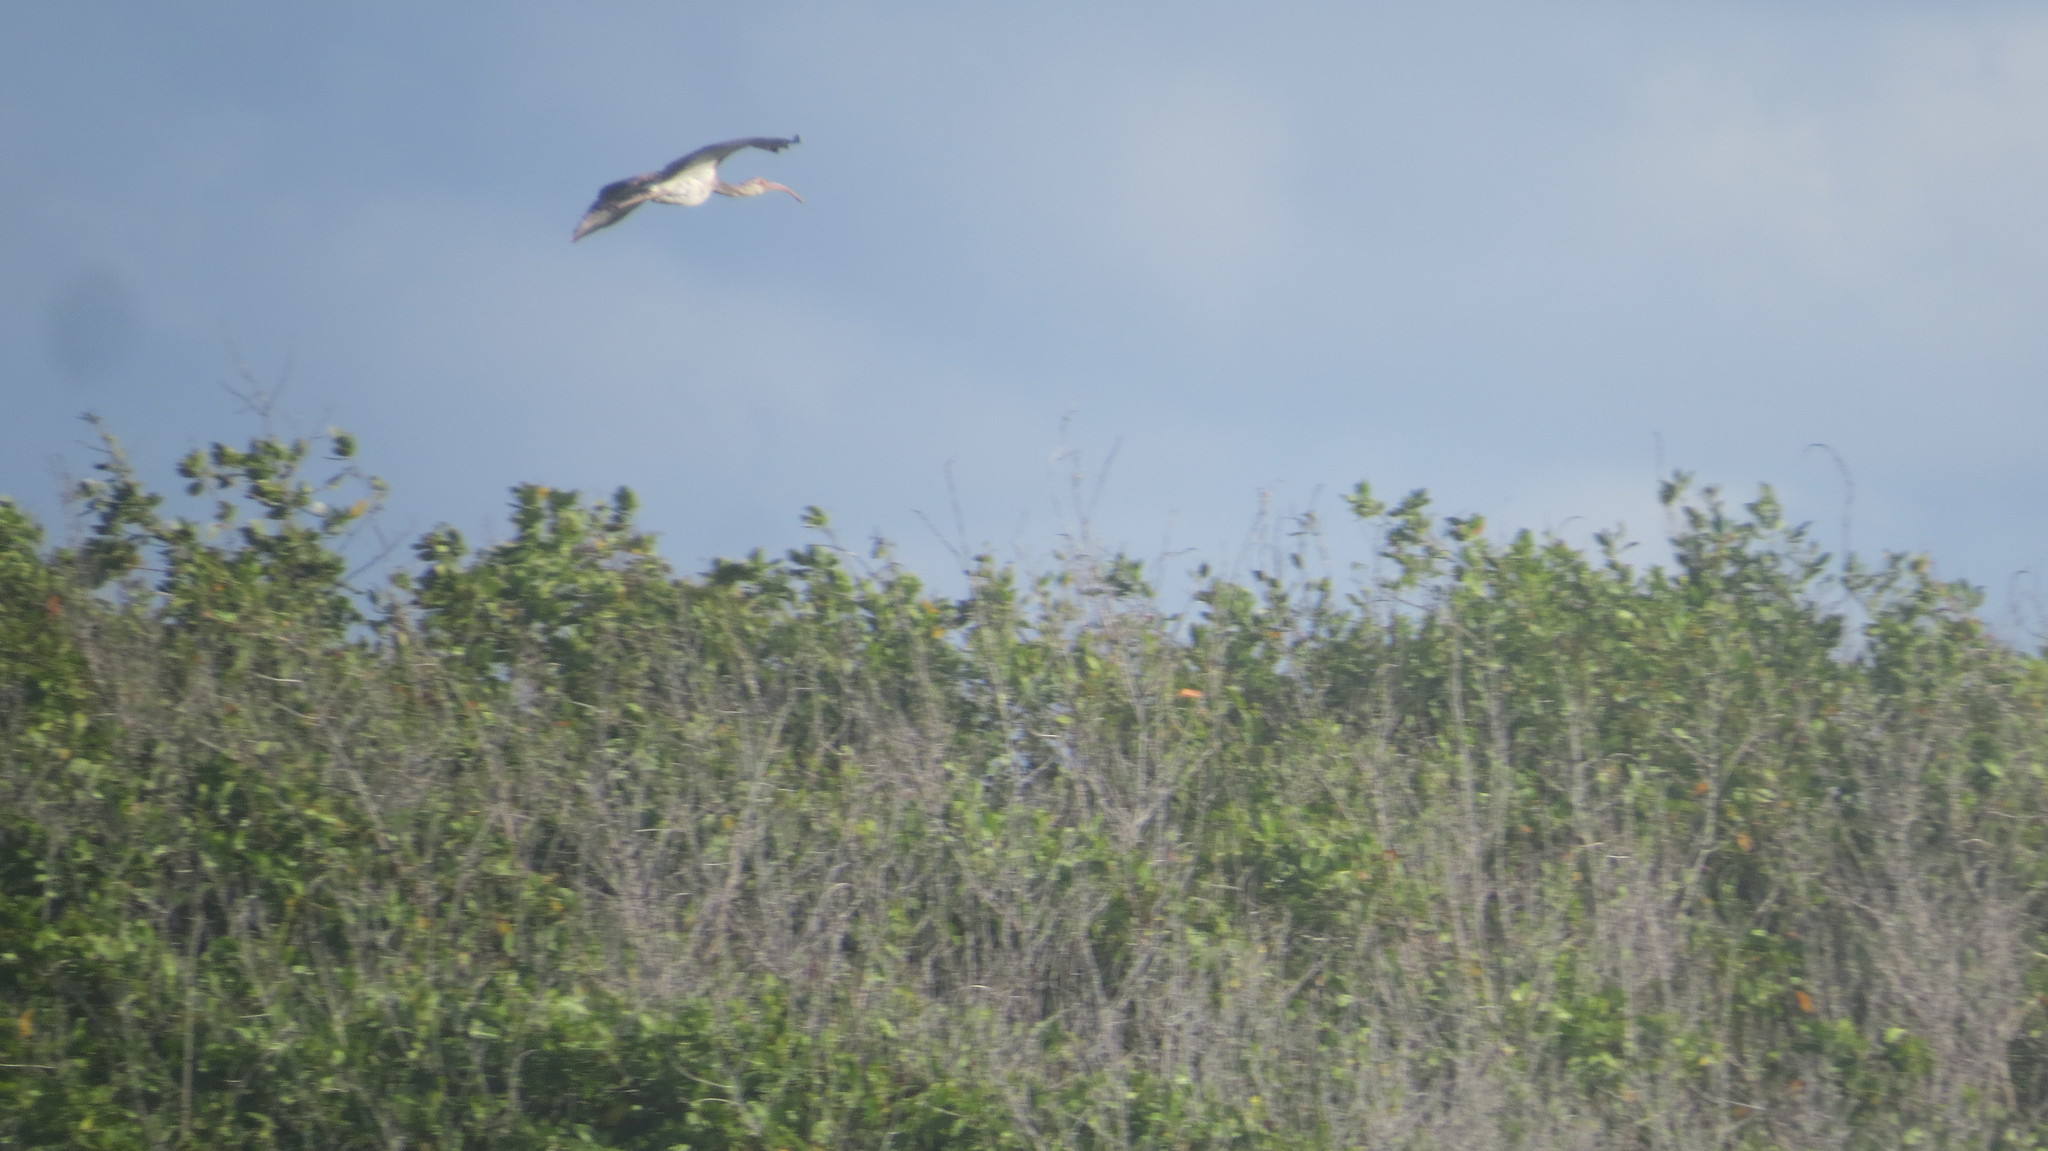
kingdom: Animalia
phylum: Chordata
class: Aves
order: Pelecaniformes
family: Threskiornithidae
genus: Eudocimus
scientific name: Eudocimus albus
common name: White ibis
